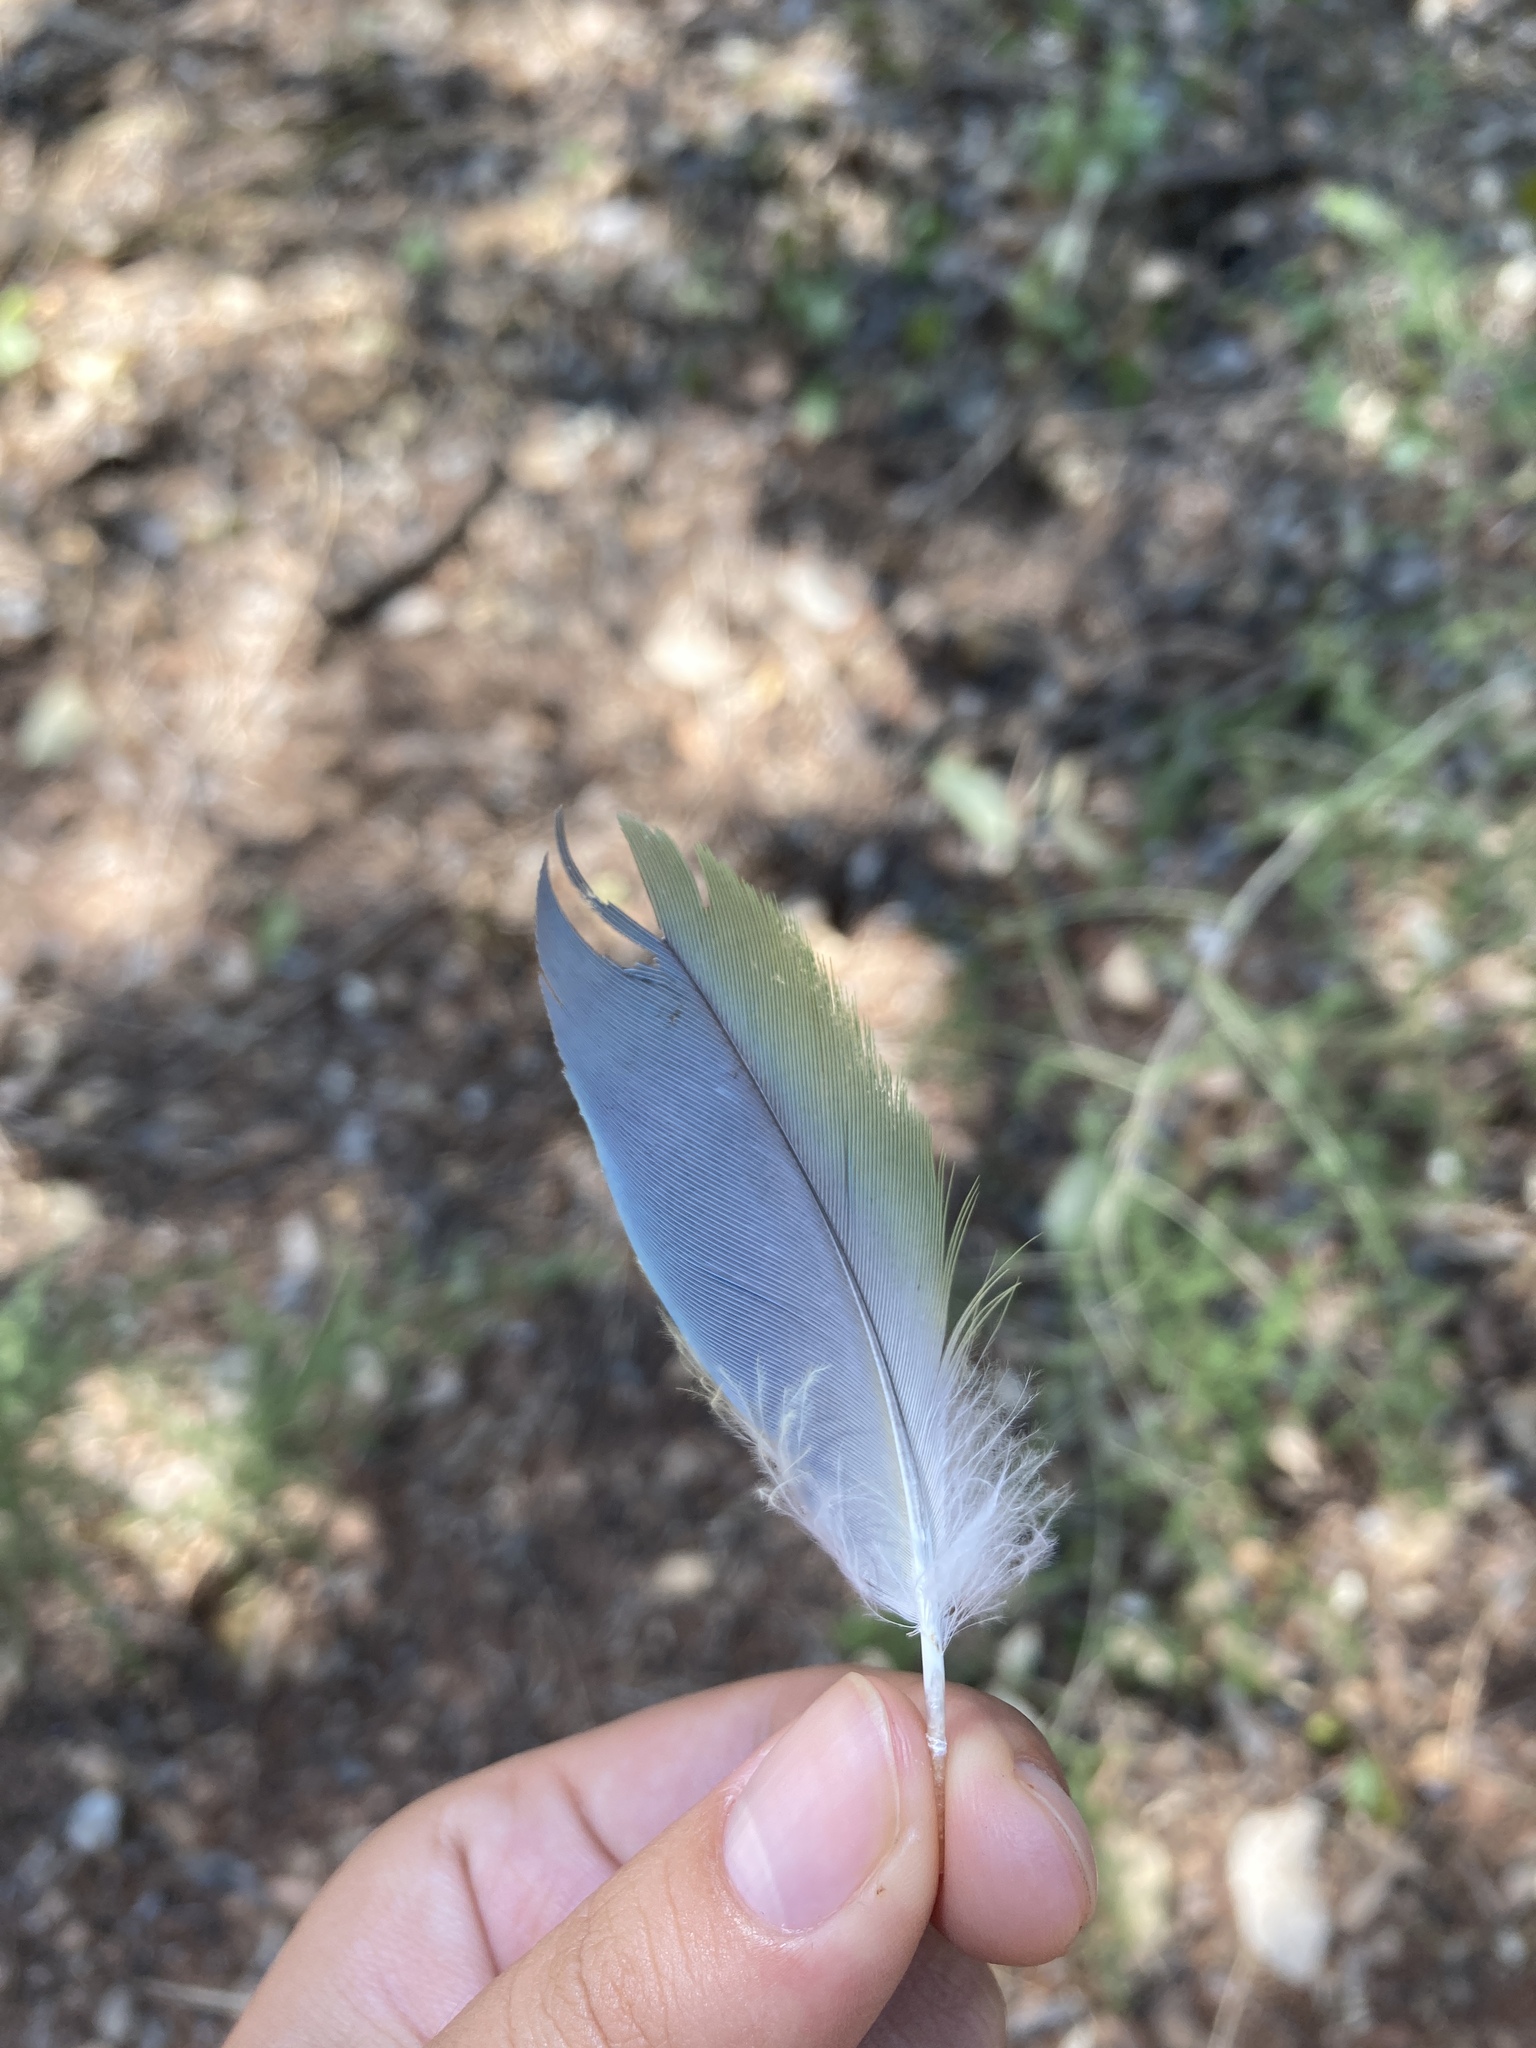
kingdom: Animalia
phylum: Chordata
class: Aves
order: Psittaciformes
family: Psittacidae
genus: Myiopsitta
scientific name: Myiopsitta monachus
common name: Monk parakeet
